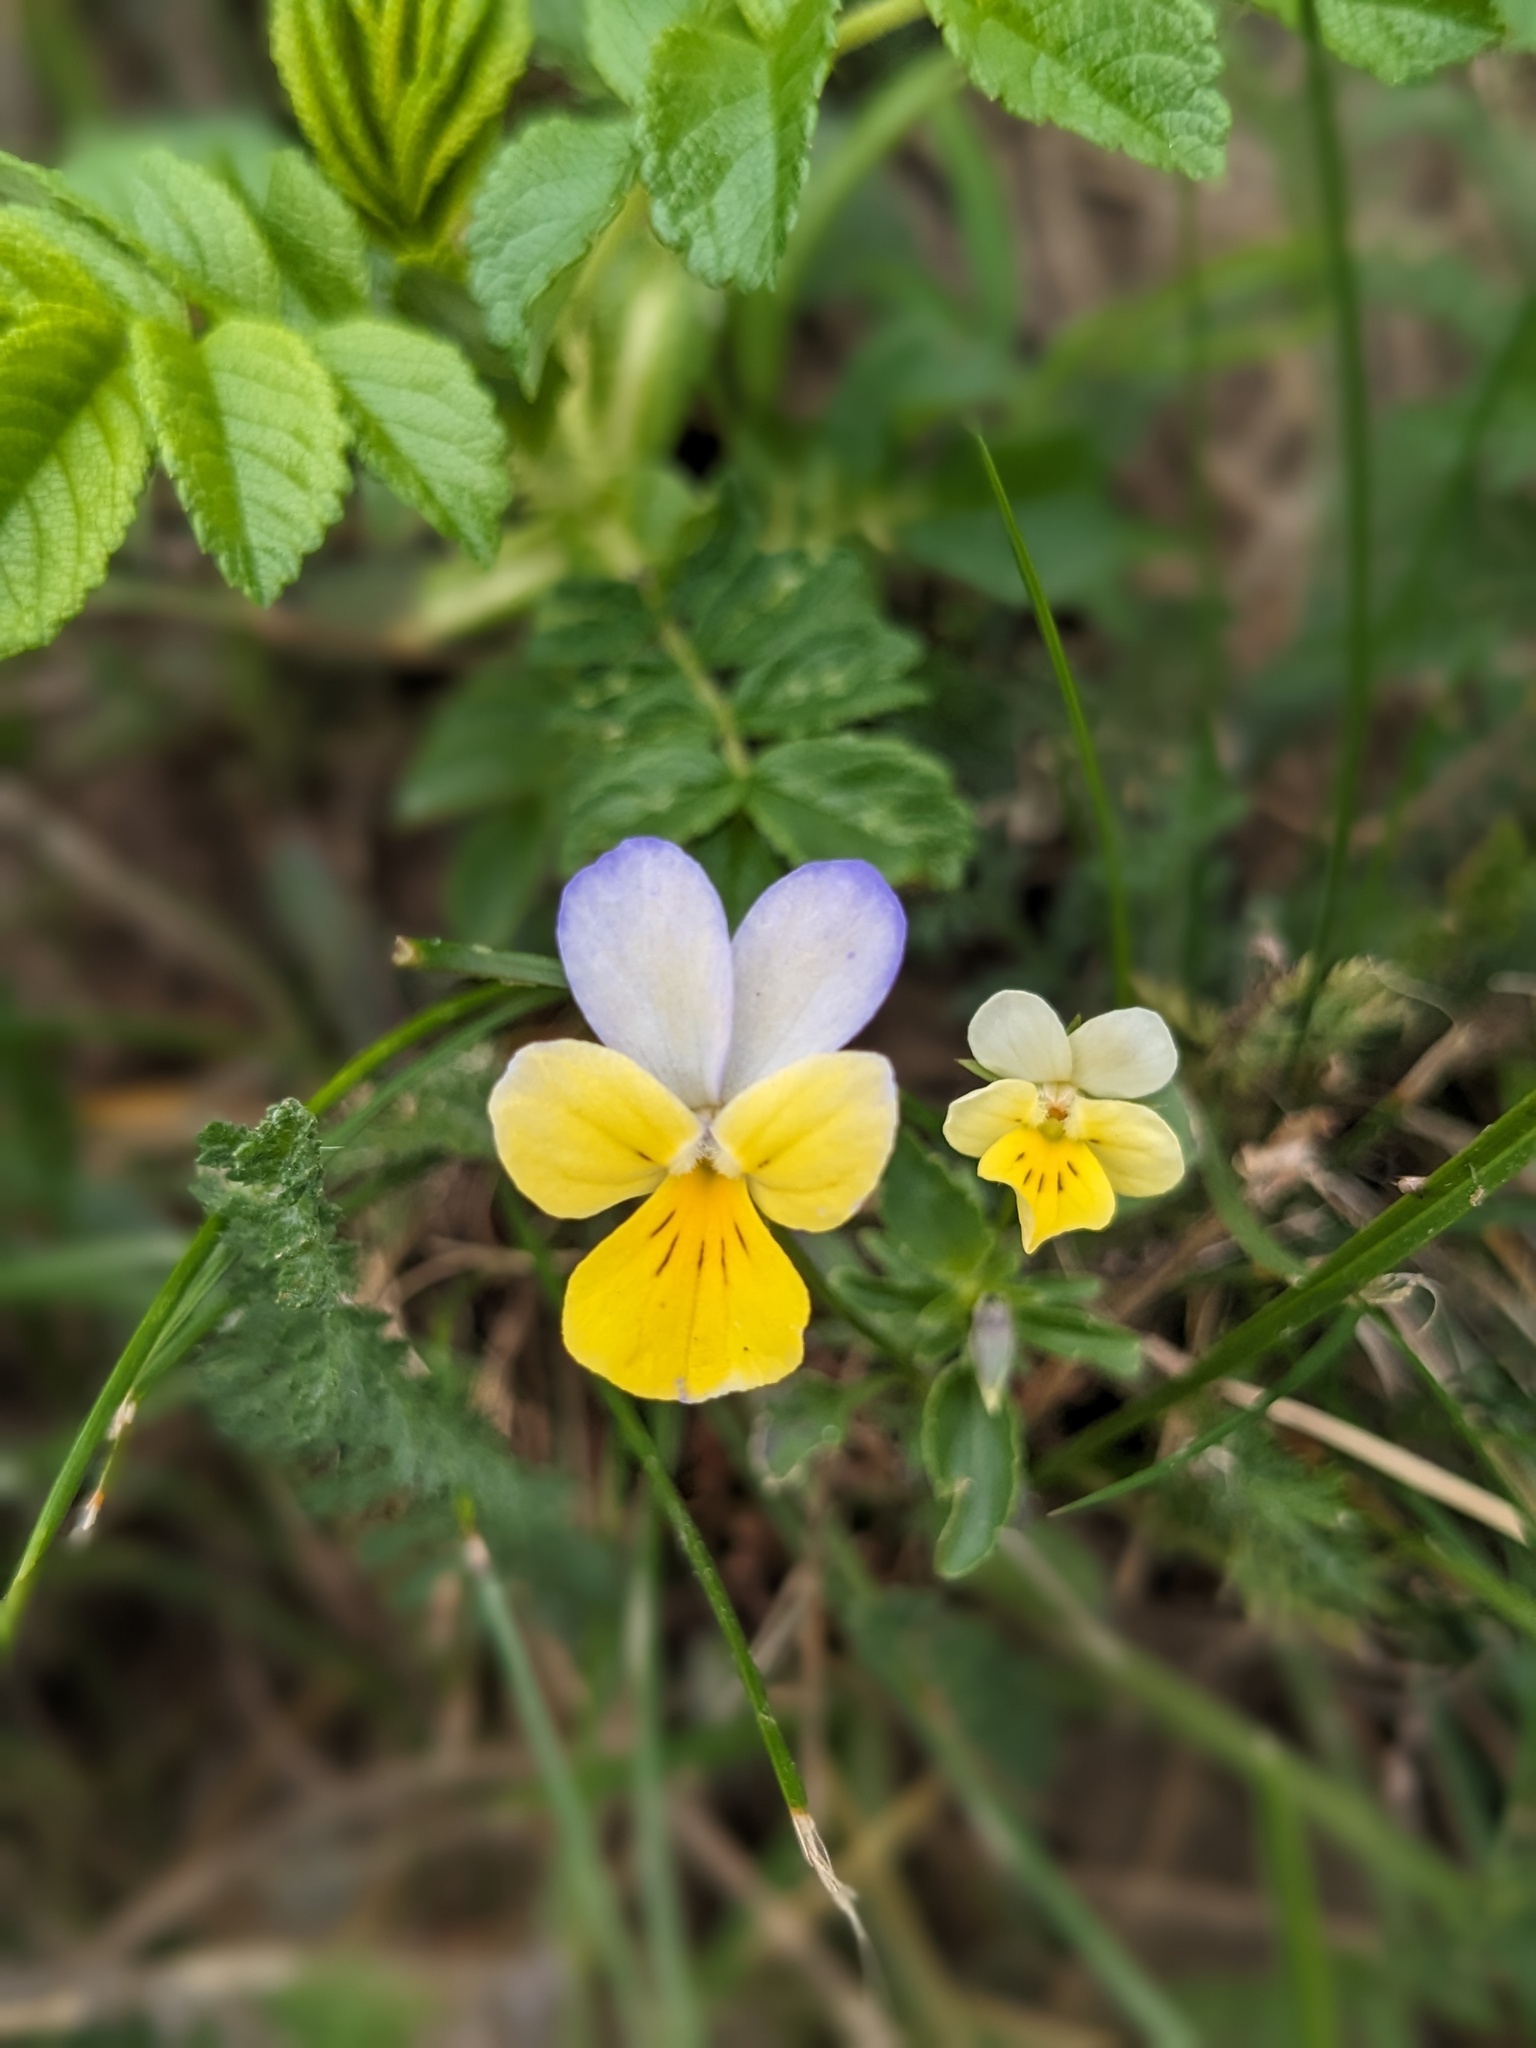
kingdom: Plantae
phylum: Tracheophyta
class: Magnoliopsida
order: Malpighiales
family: Violaceae
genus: Viola
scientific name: Viola tricolor
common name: Pansy
